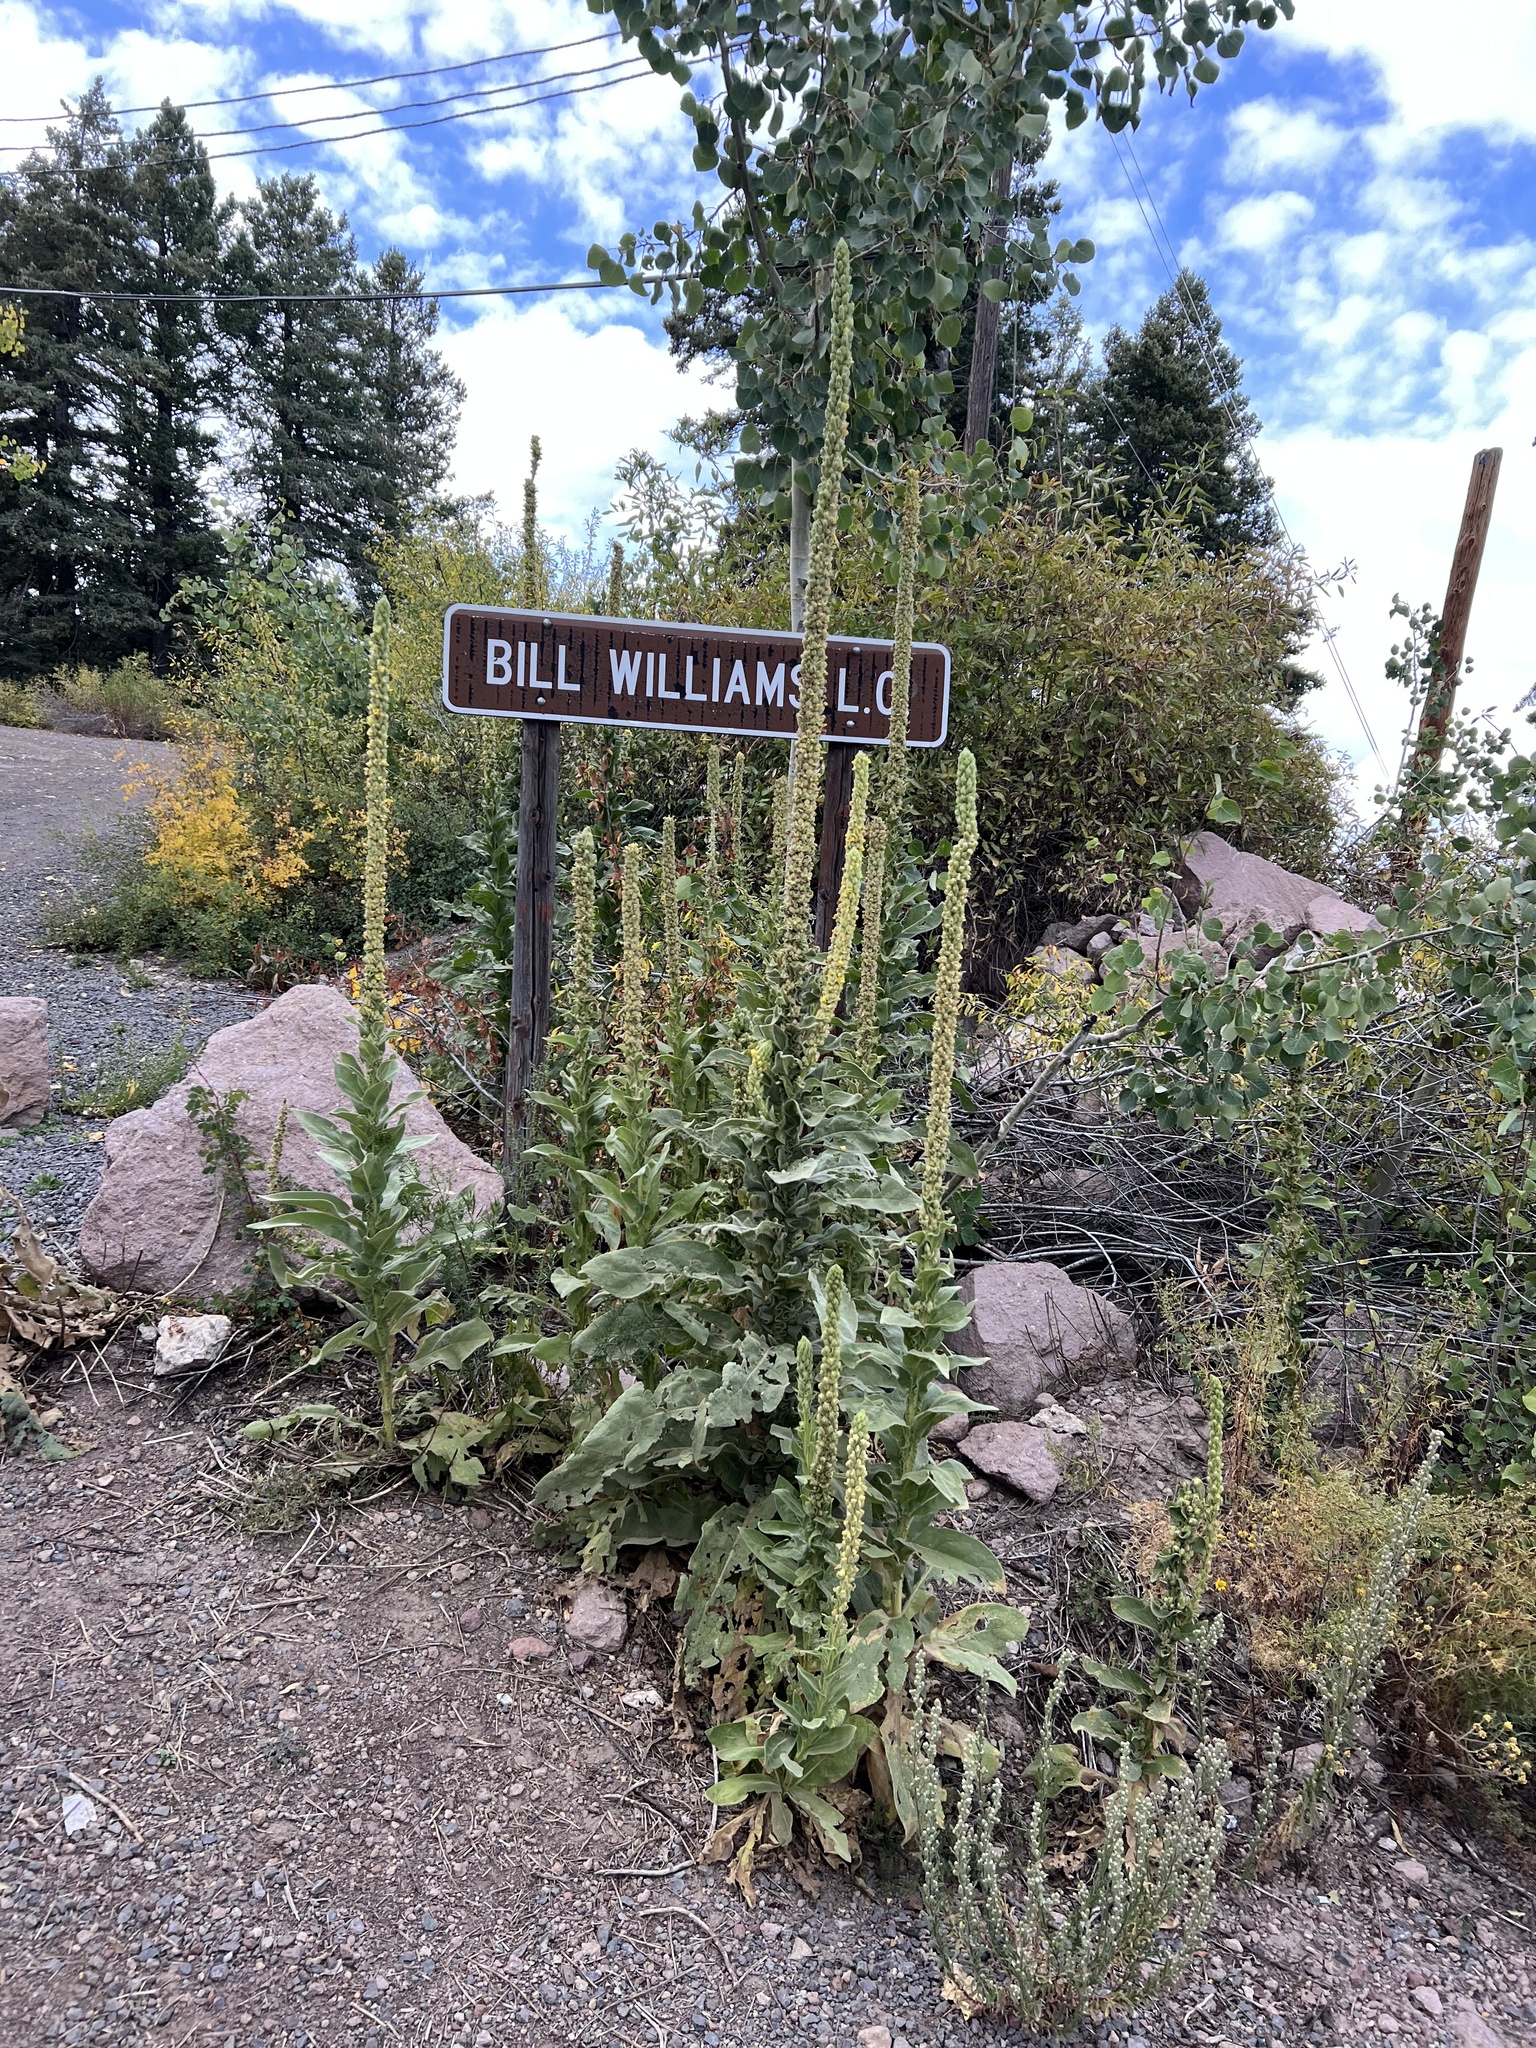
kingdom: Plantae
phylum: Tracheophyta
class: Magnoliopsida
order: Lamiales
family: Scrophulariaceae
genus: Verbascum
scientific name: Verbascum thapsus
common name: Common mullein
